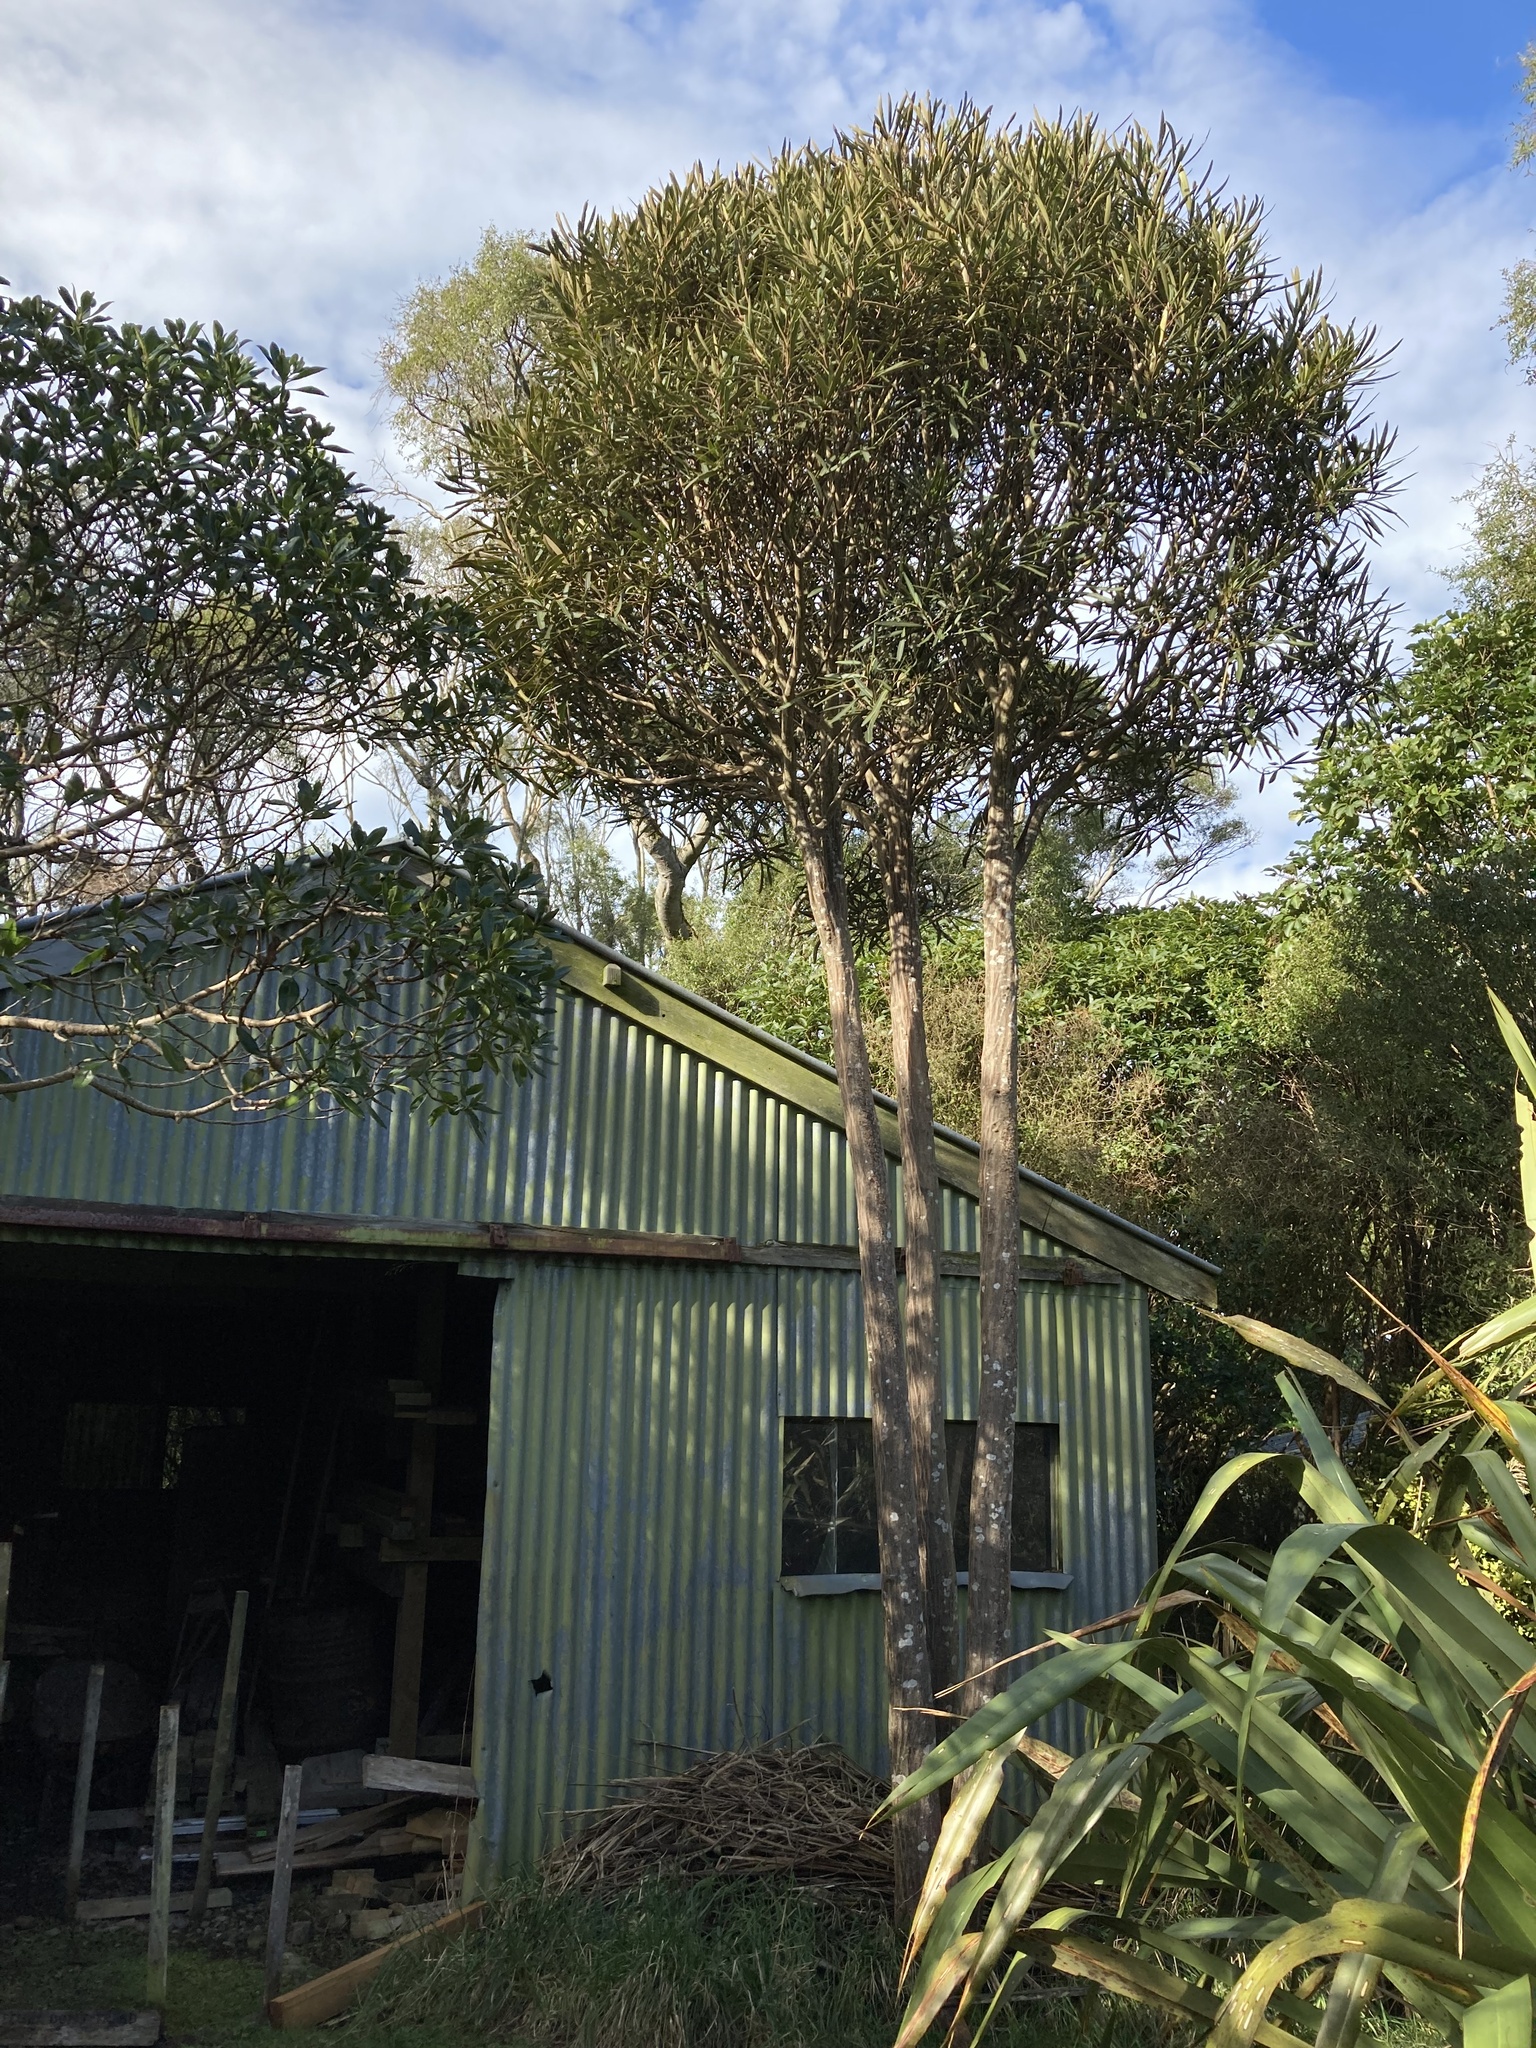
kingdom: Plantae
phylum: Tracheophyta
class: Magnoliopsida
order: Apiales
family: Araliaceae
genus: Pseudopanax
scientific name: Pseudopanax ferox
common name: Fierce lancewood
